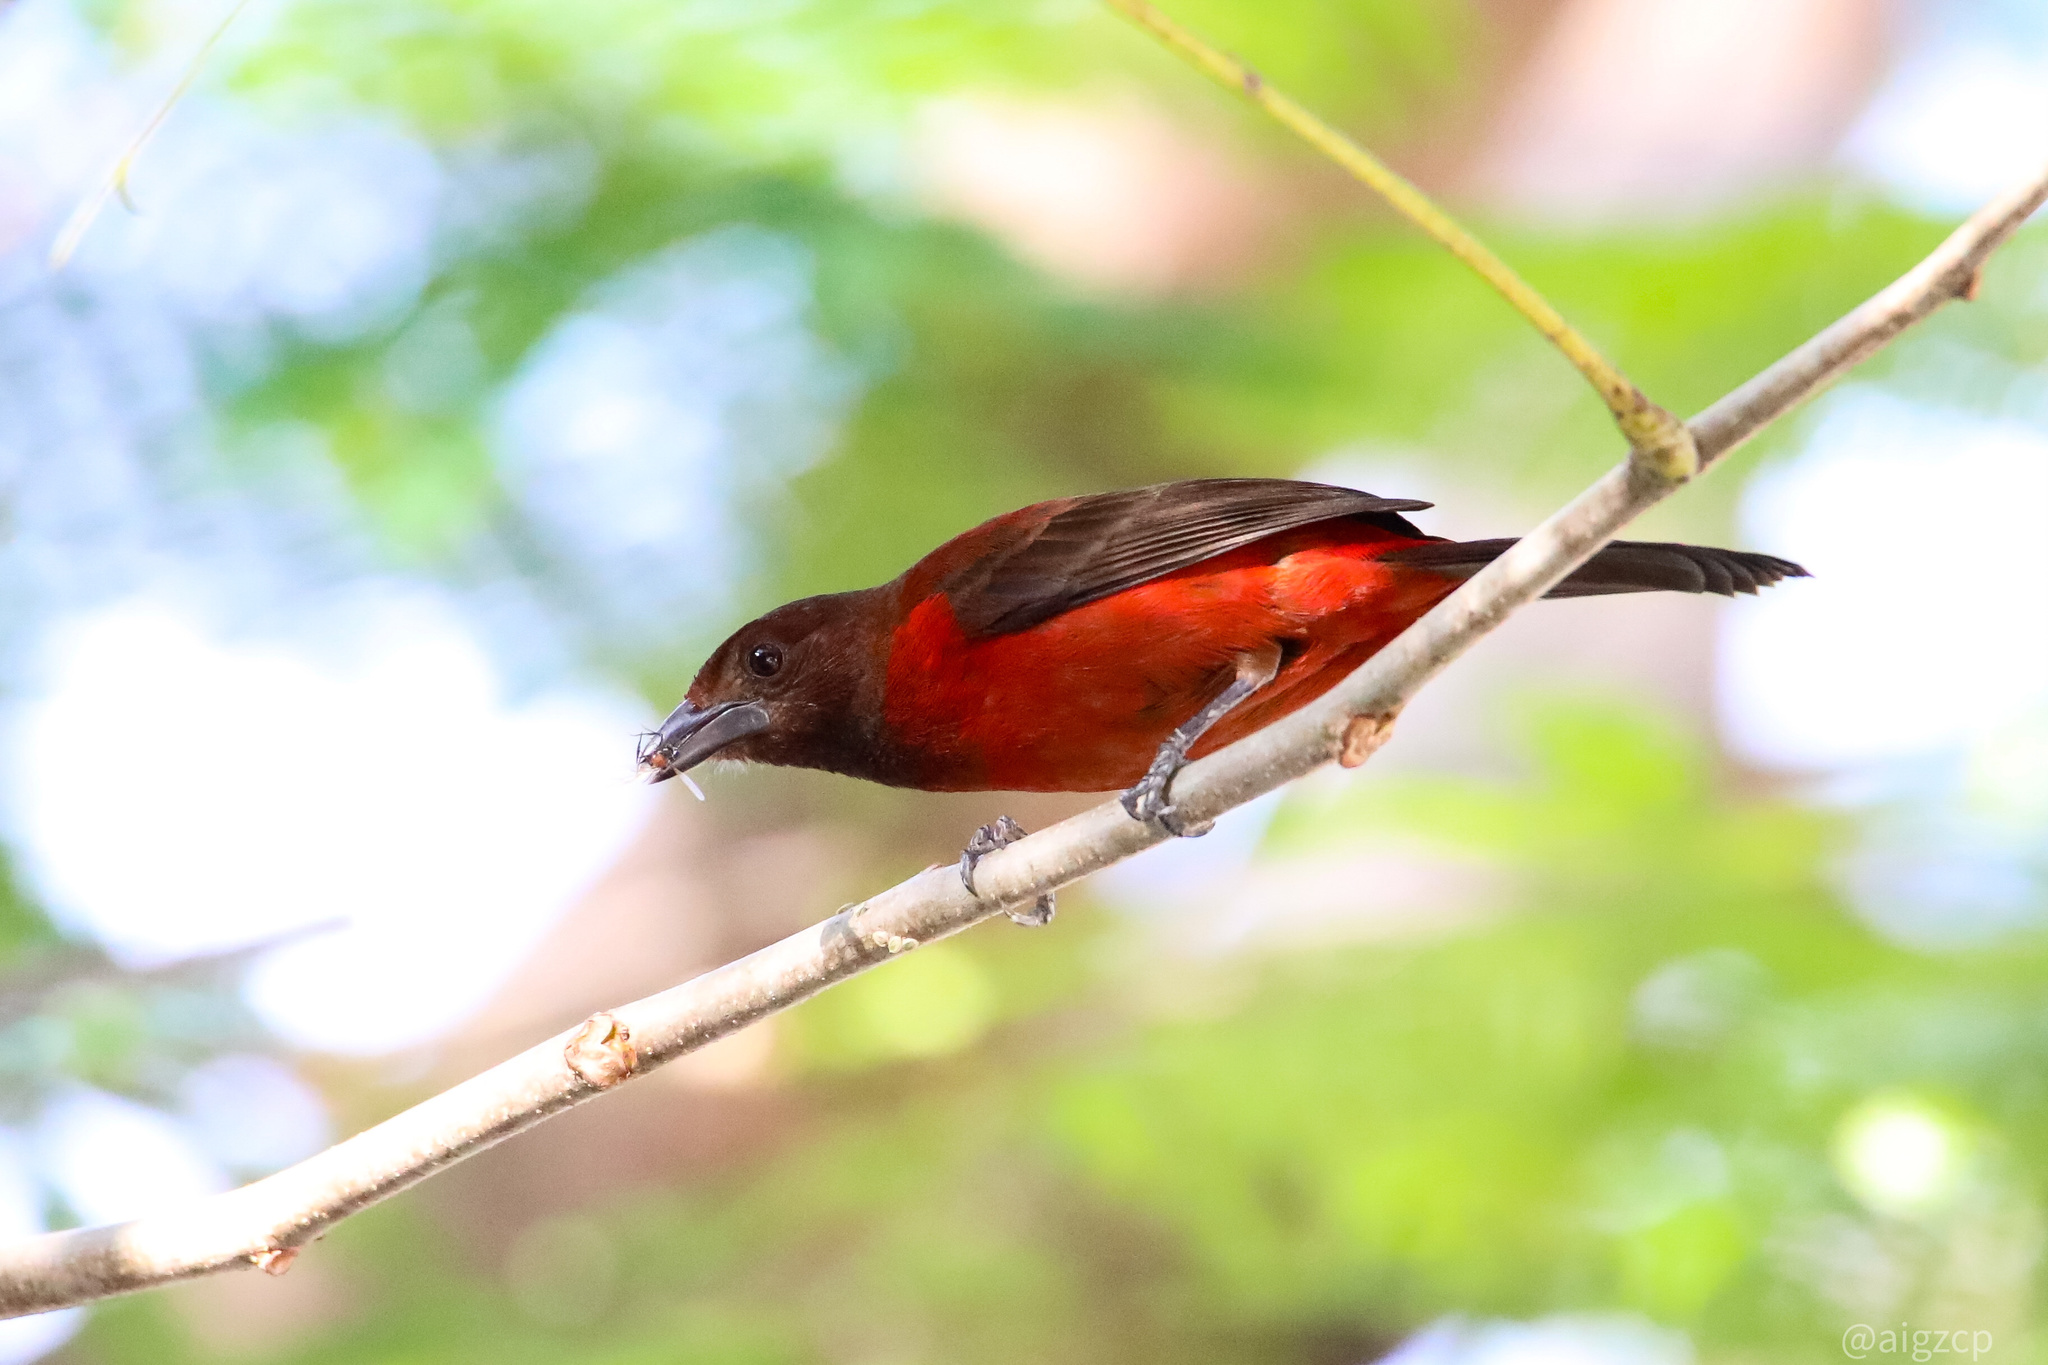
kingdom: Animalia
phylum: Chordata
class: Aves
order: Passeriformes
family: Thraupidae
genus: Ramphocelus
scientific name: Ramphocelus dimidiatus
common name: Crimson-backed tanager
